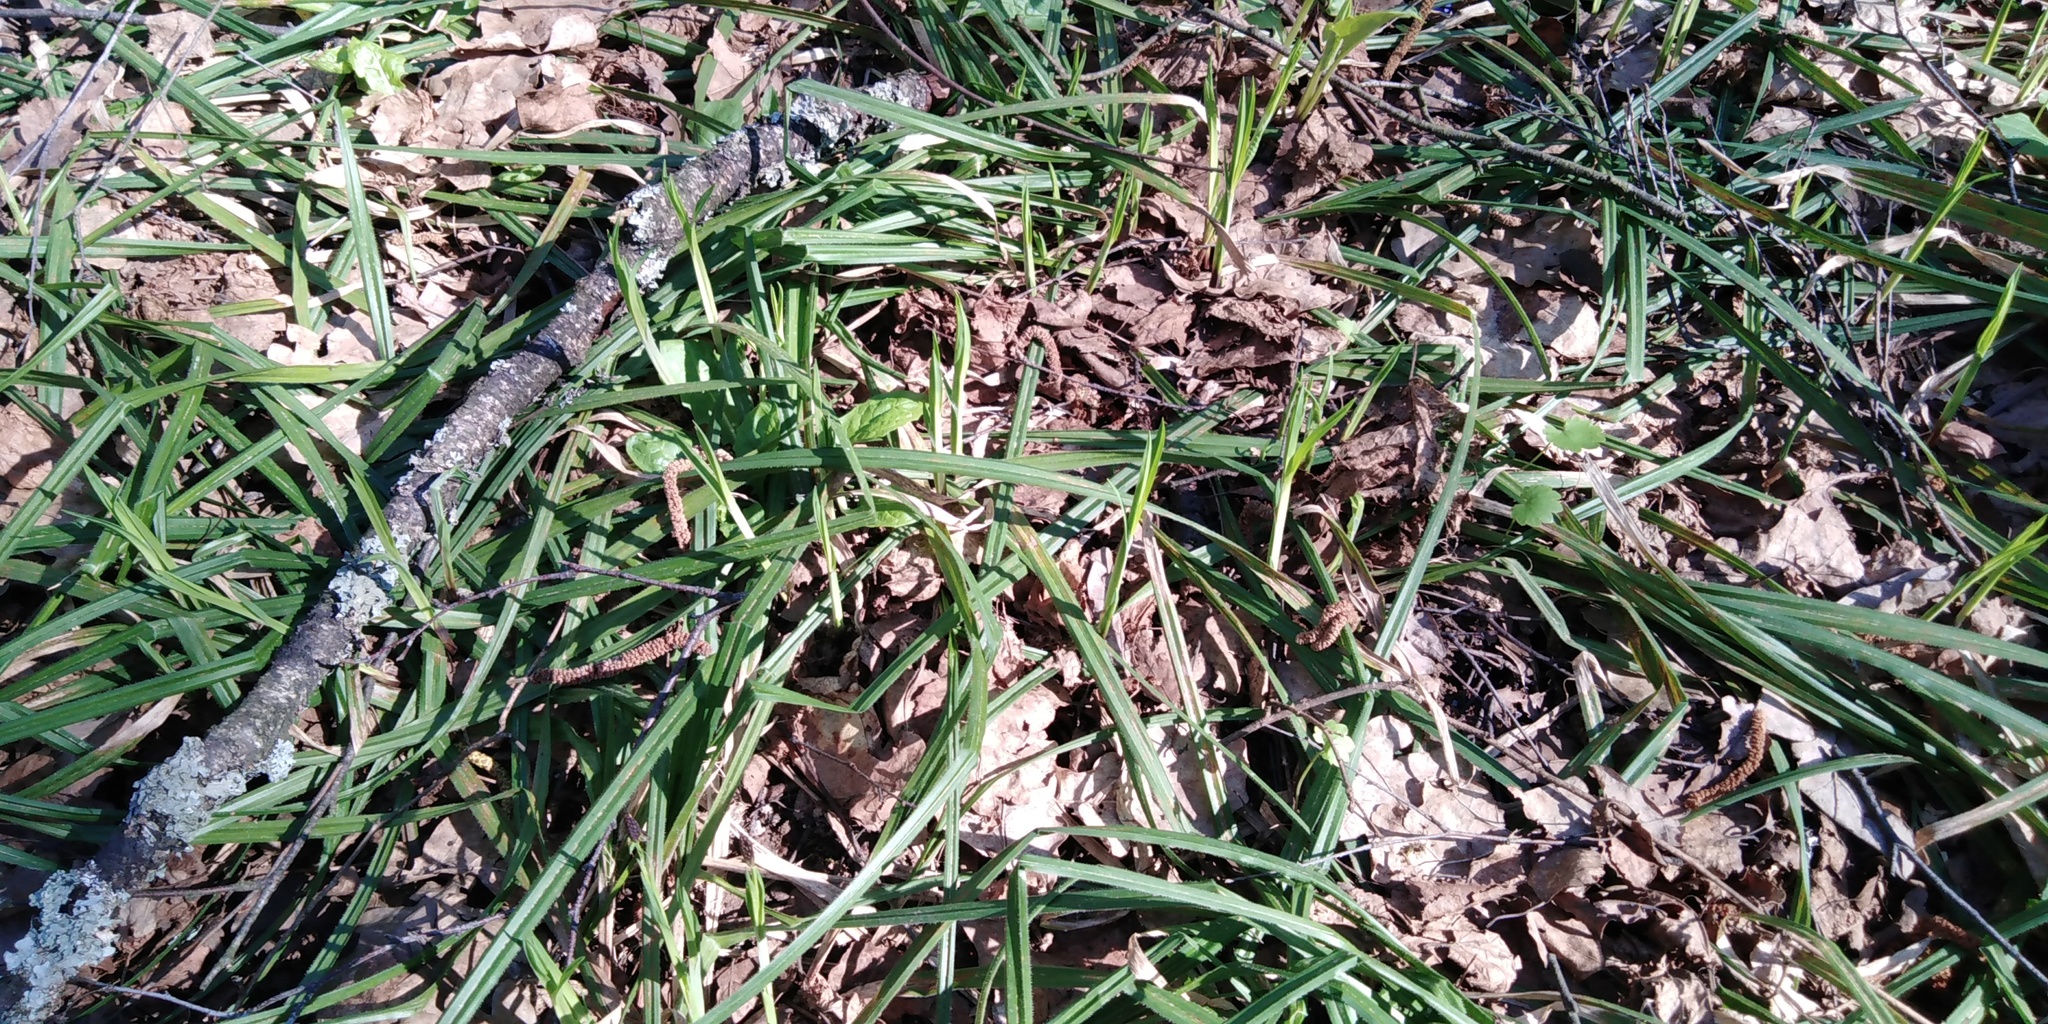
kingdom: Plantae
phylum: Tracheophyta
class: Liliopsida
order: Poales
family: Cyperaceae
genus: Carex
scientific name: Carex pilosa
